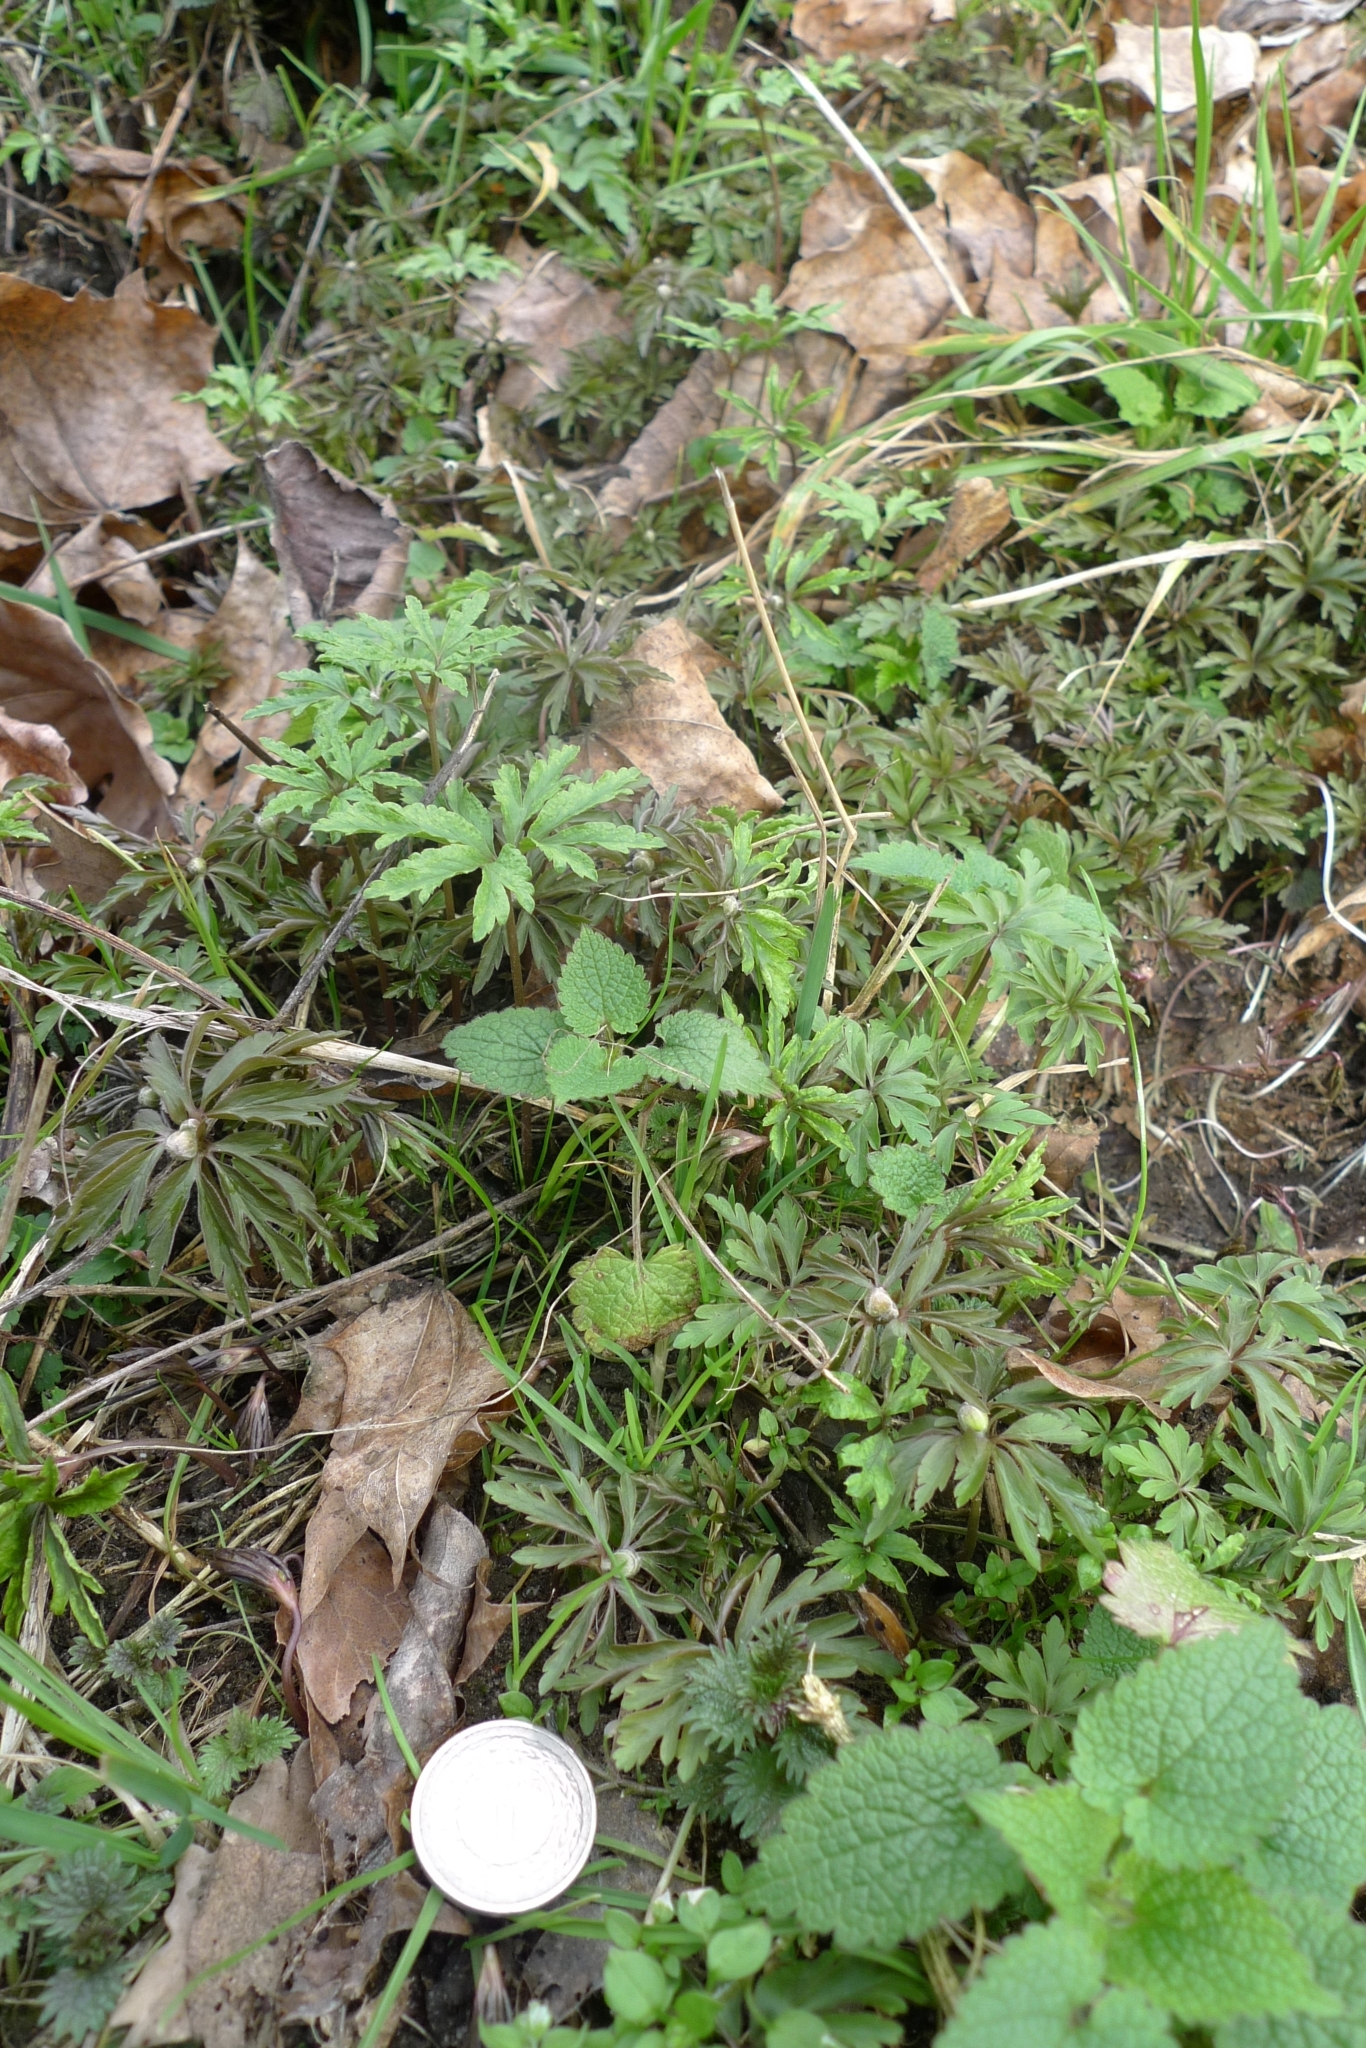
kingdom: Plantae
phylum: Tracheophyta
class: Magnoliopsida
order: Ranunculales
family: Ranunculaceae
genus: Anemone
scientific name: Anemone ranunculoides
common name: Yellow anemone
